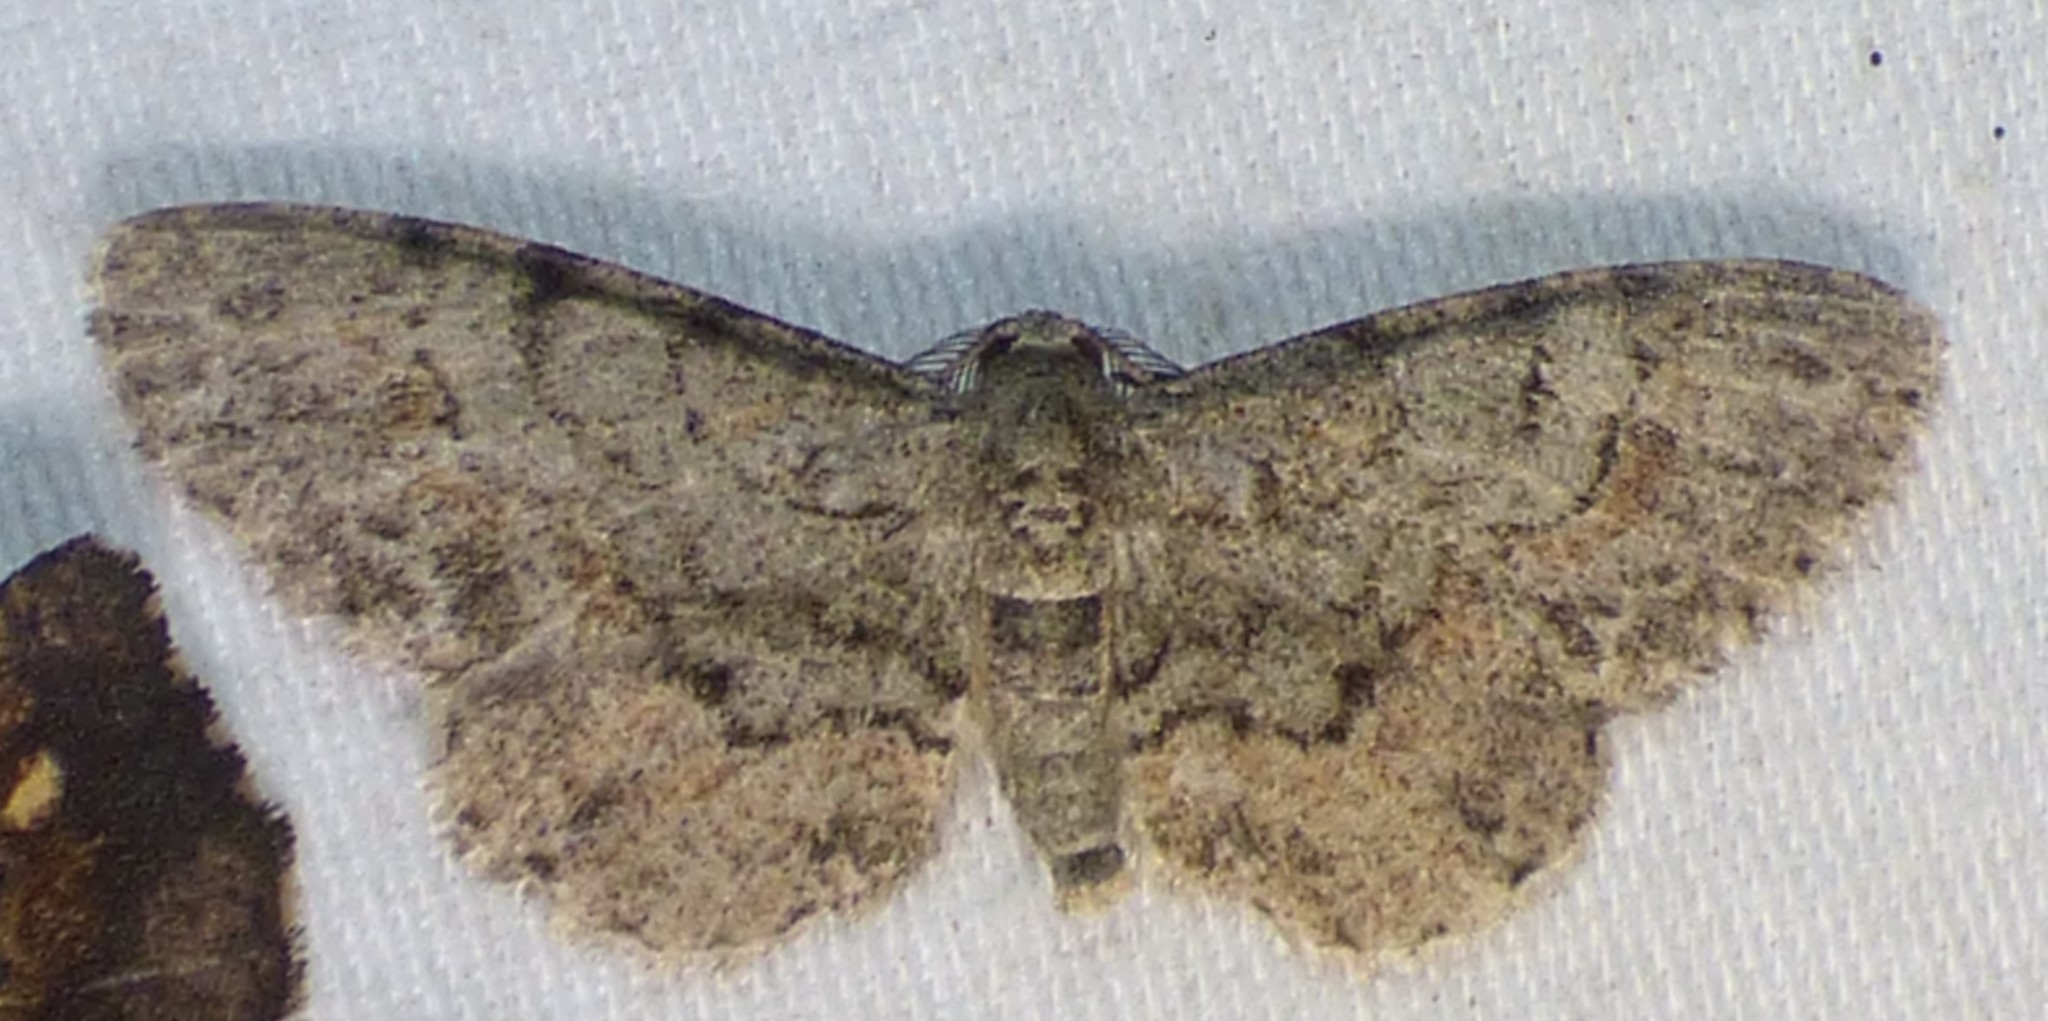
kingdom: Animalia
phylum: Arthropoda
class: Insecta
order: Lepidoptera
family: Geometridae
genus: Glenoides
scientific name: Glenoides texanaria
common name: Texas gray
